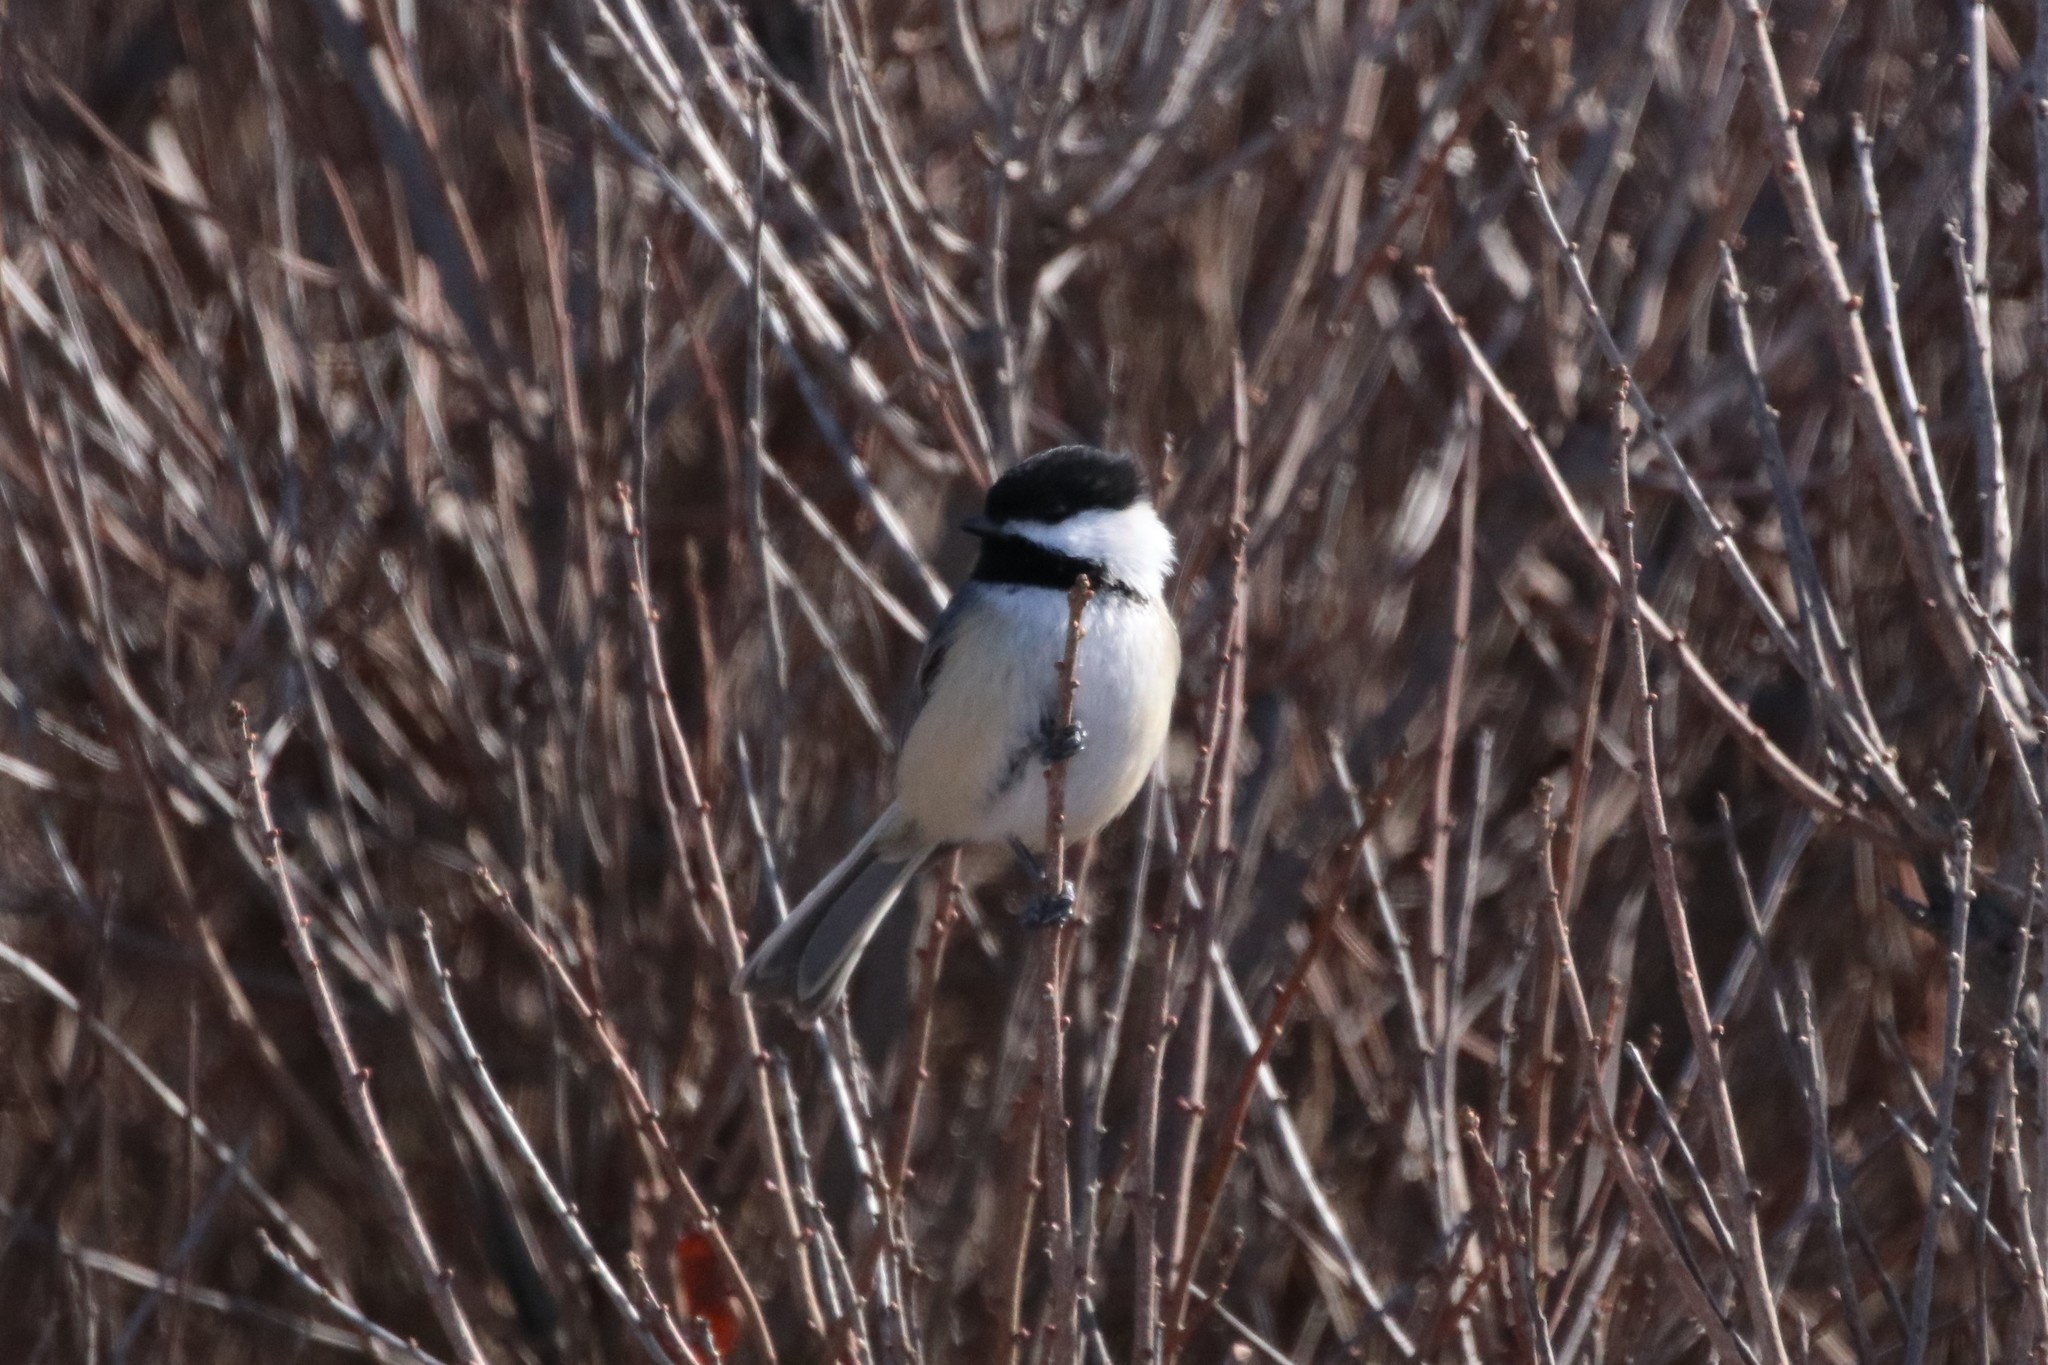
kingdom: Animalia
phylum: Chordata
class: Aves
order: Passeriformes
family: Paridae
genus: Poecile
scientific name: Poecile atricapillus
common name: Black-capped chickadee
